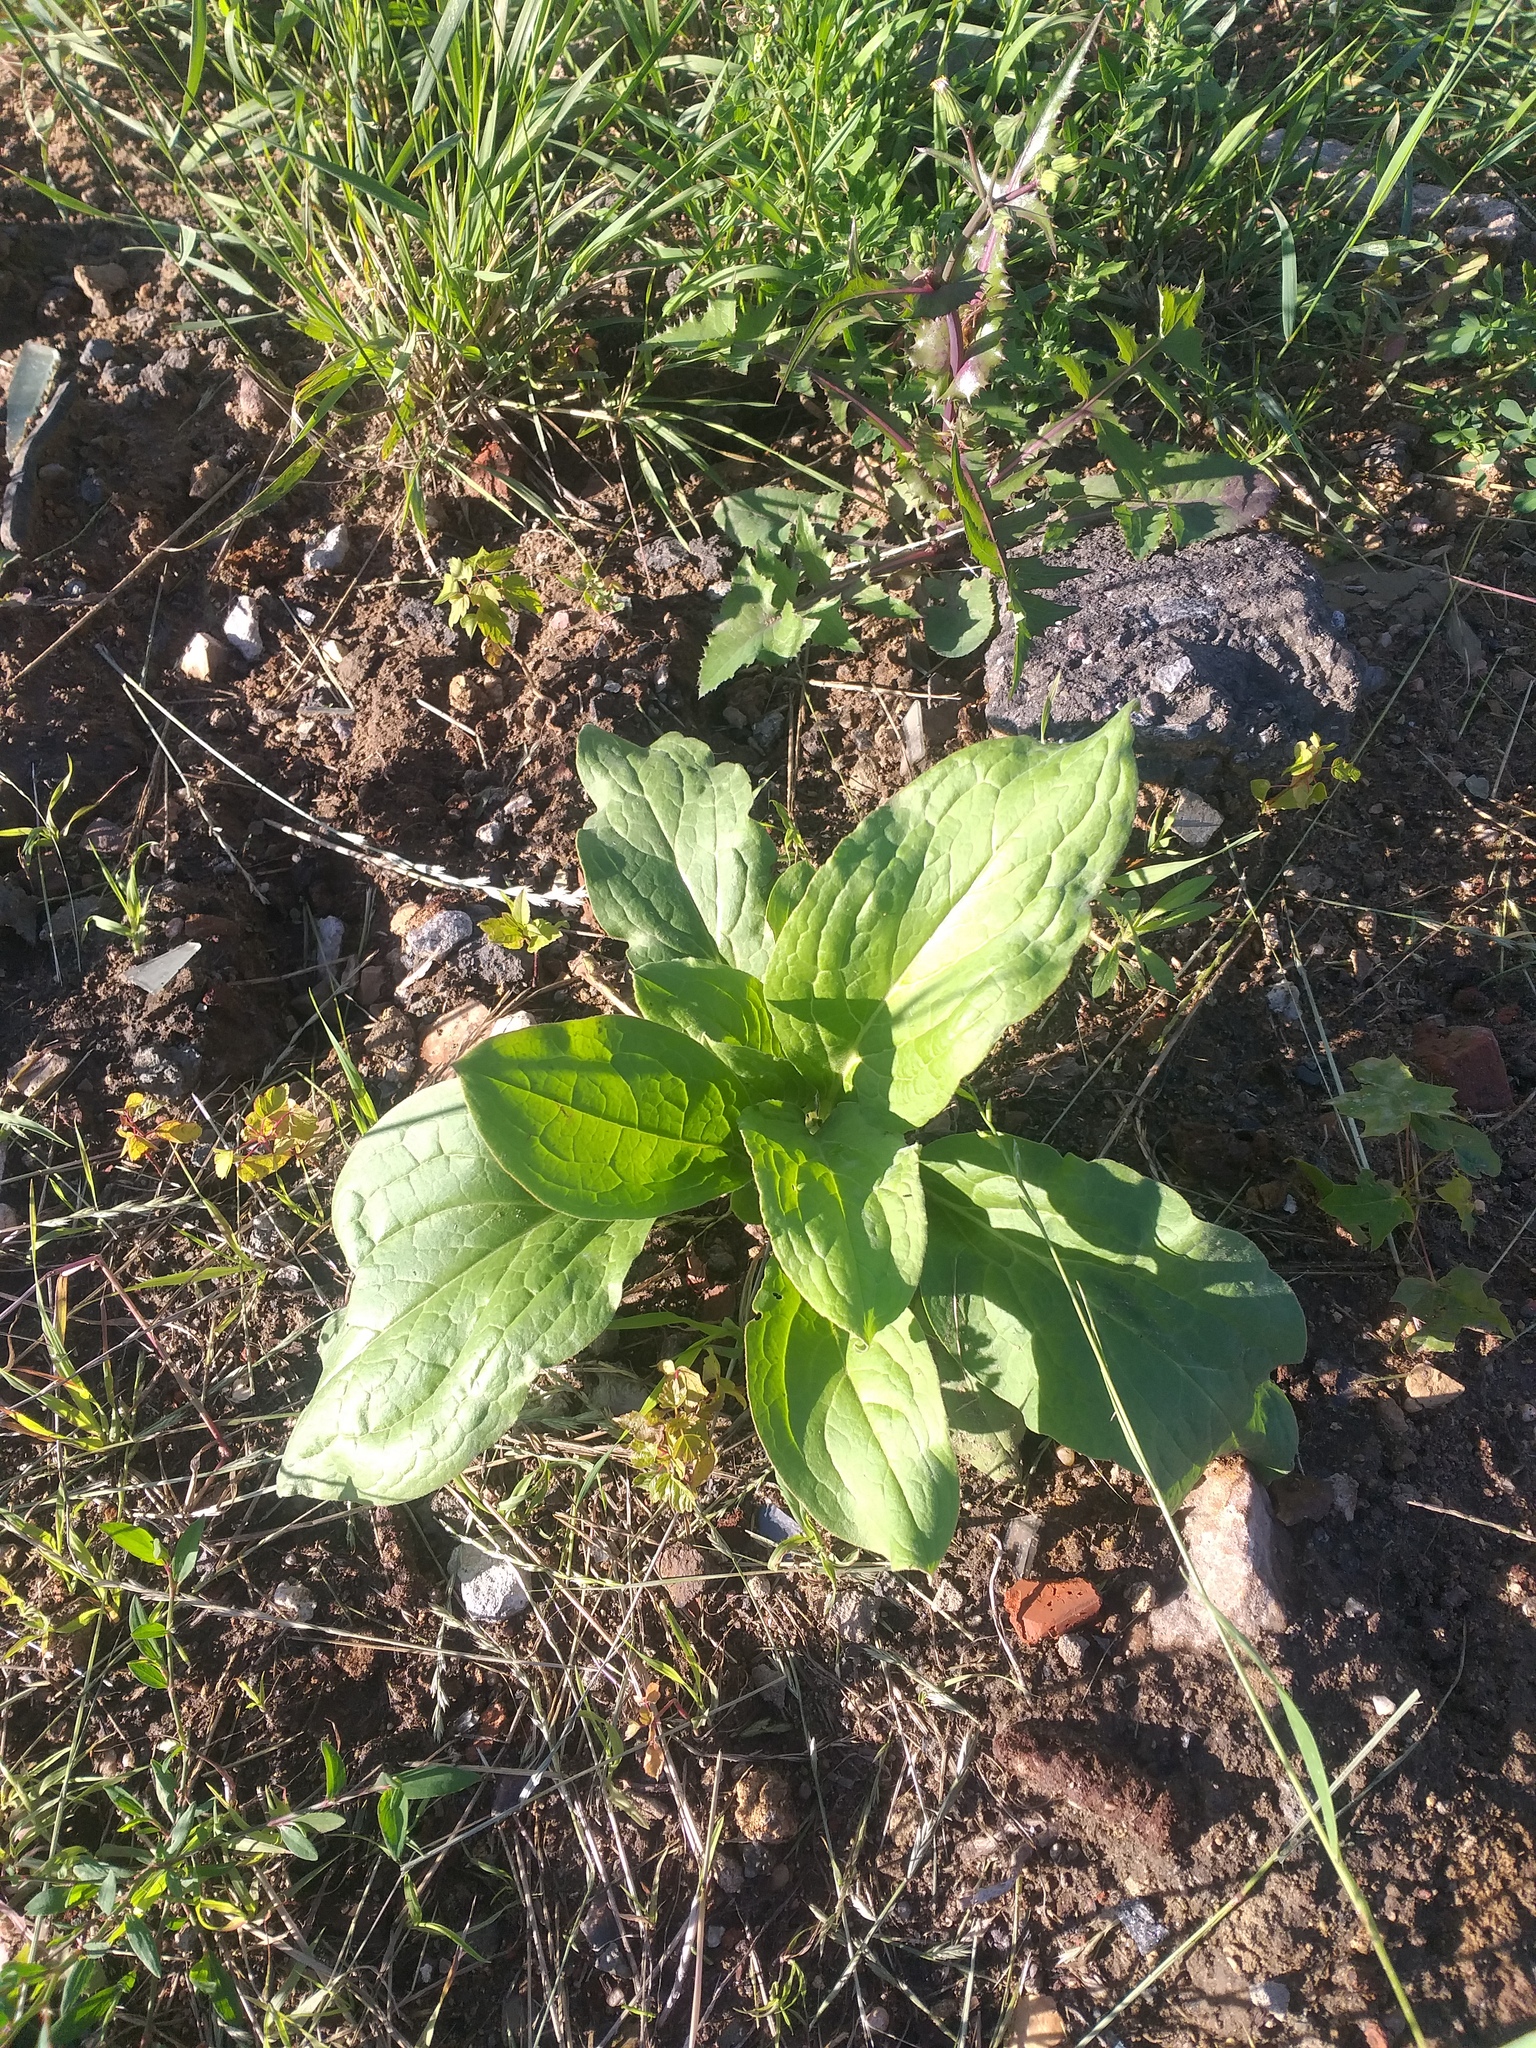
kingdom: Plantae
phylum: Tracheophyta
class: Magnoliopsida
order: Boraginales
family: Boraginaceae
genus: Cynoglossum
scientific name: Cynoglossum officinale
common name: Hound's-tongue
